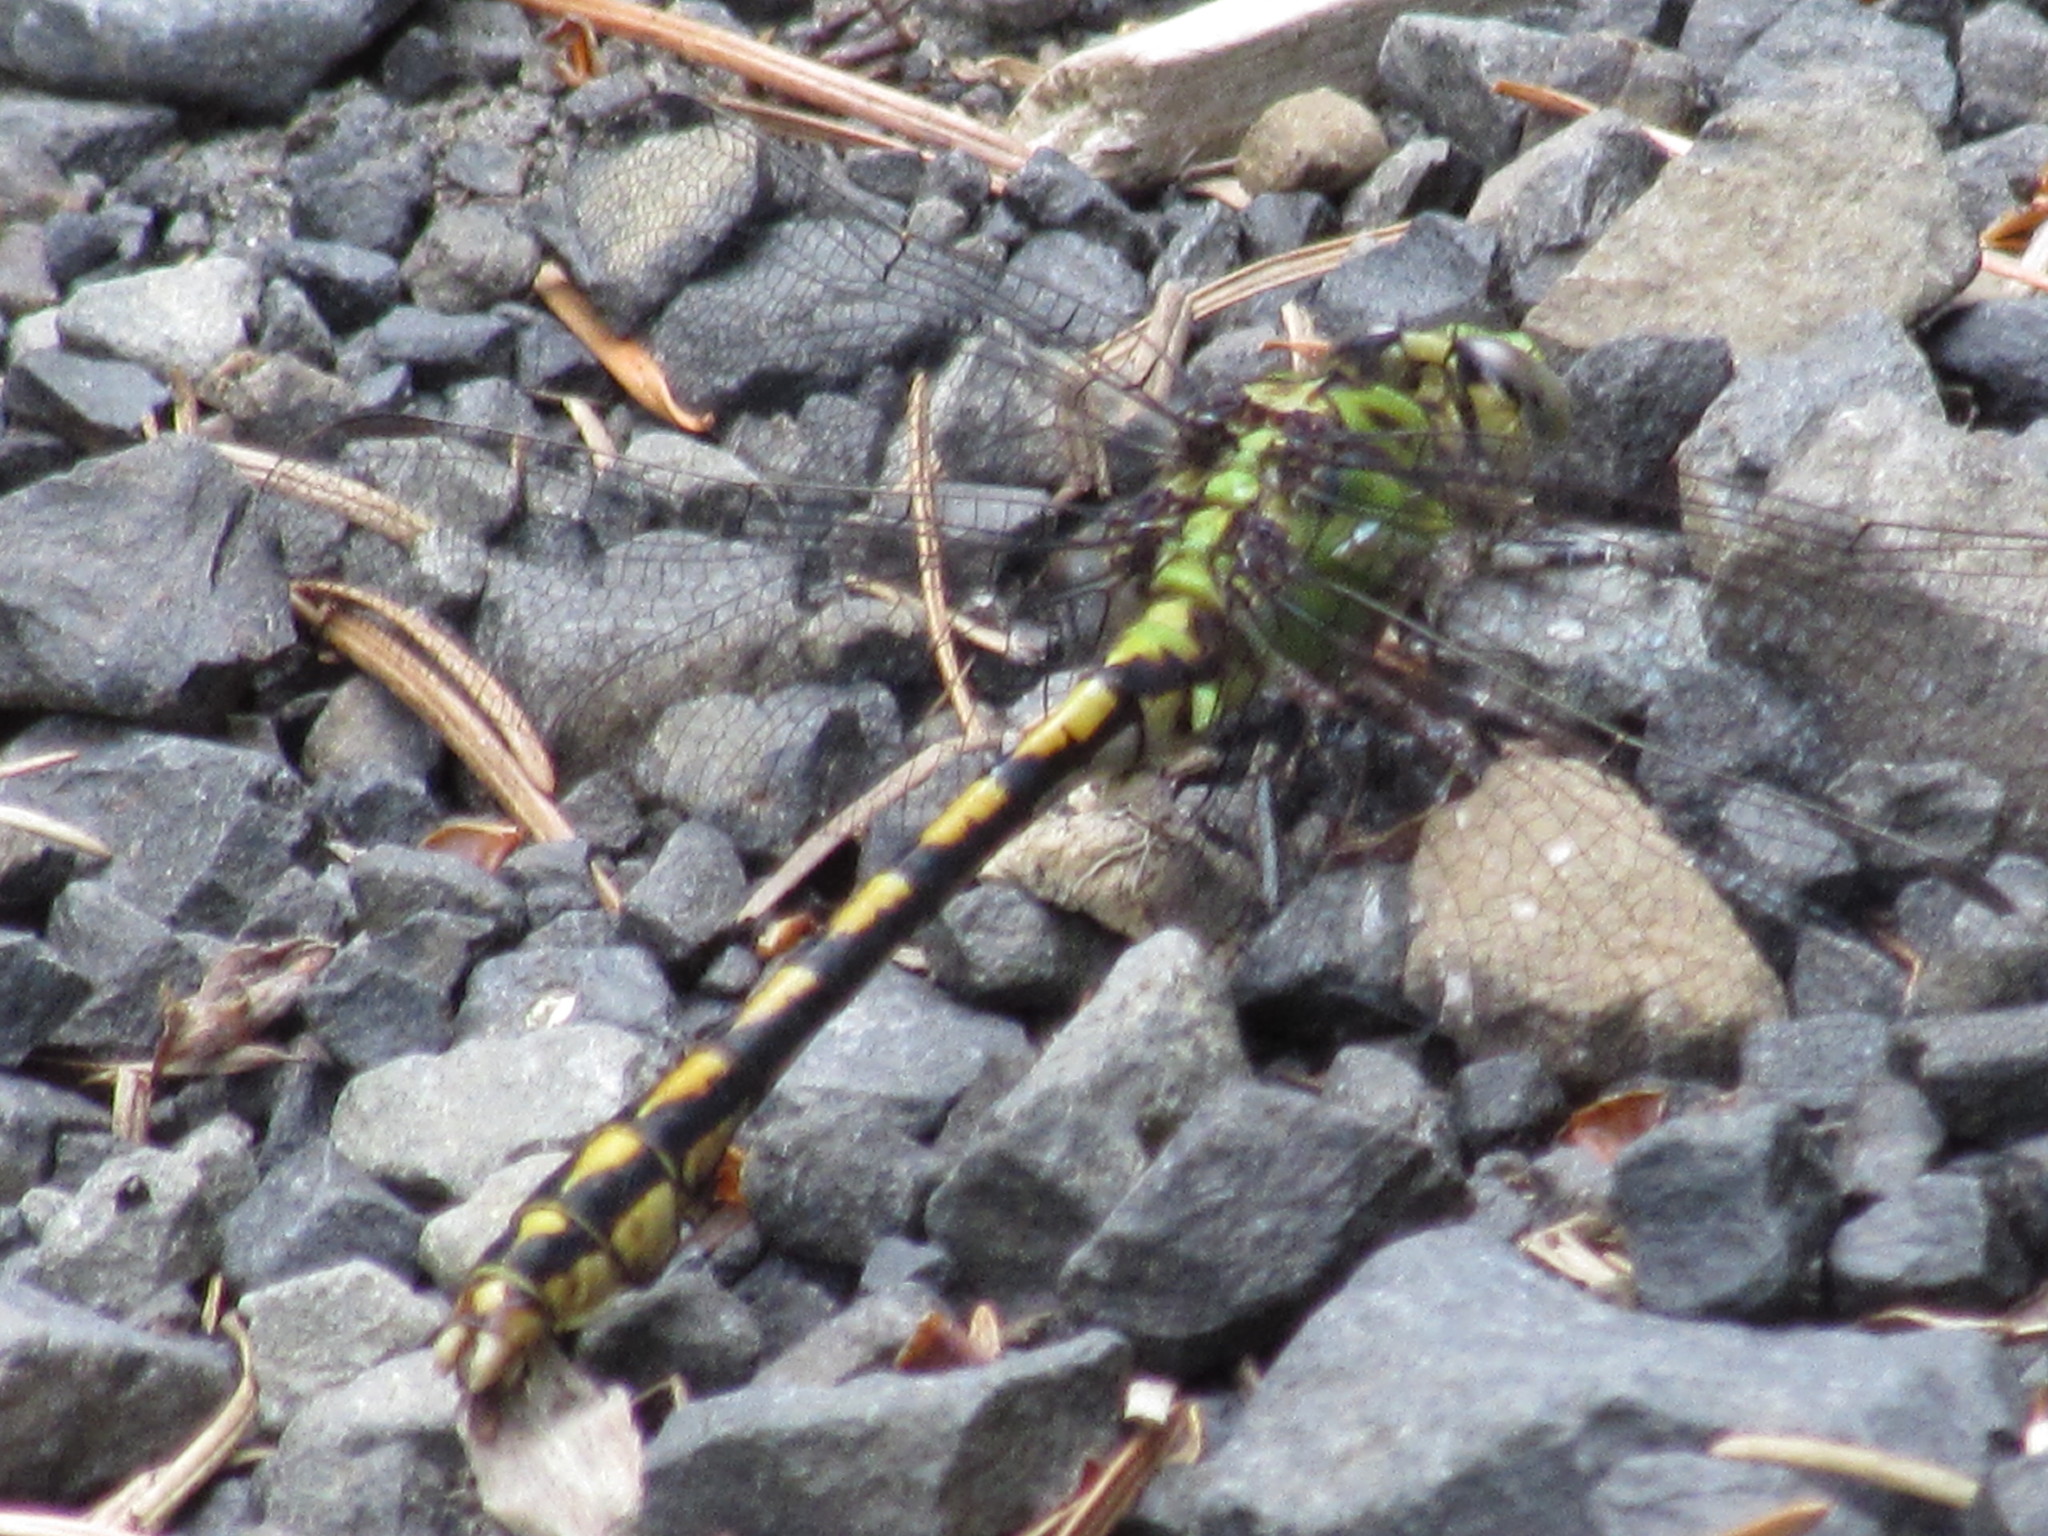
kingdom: Animalia
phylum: Arthropoda
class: Insecta
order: Odonata
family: Gomphidae
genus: Ophiogomphus
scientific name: Ophiogomphus severus
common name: Pale snaketail
